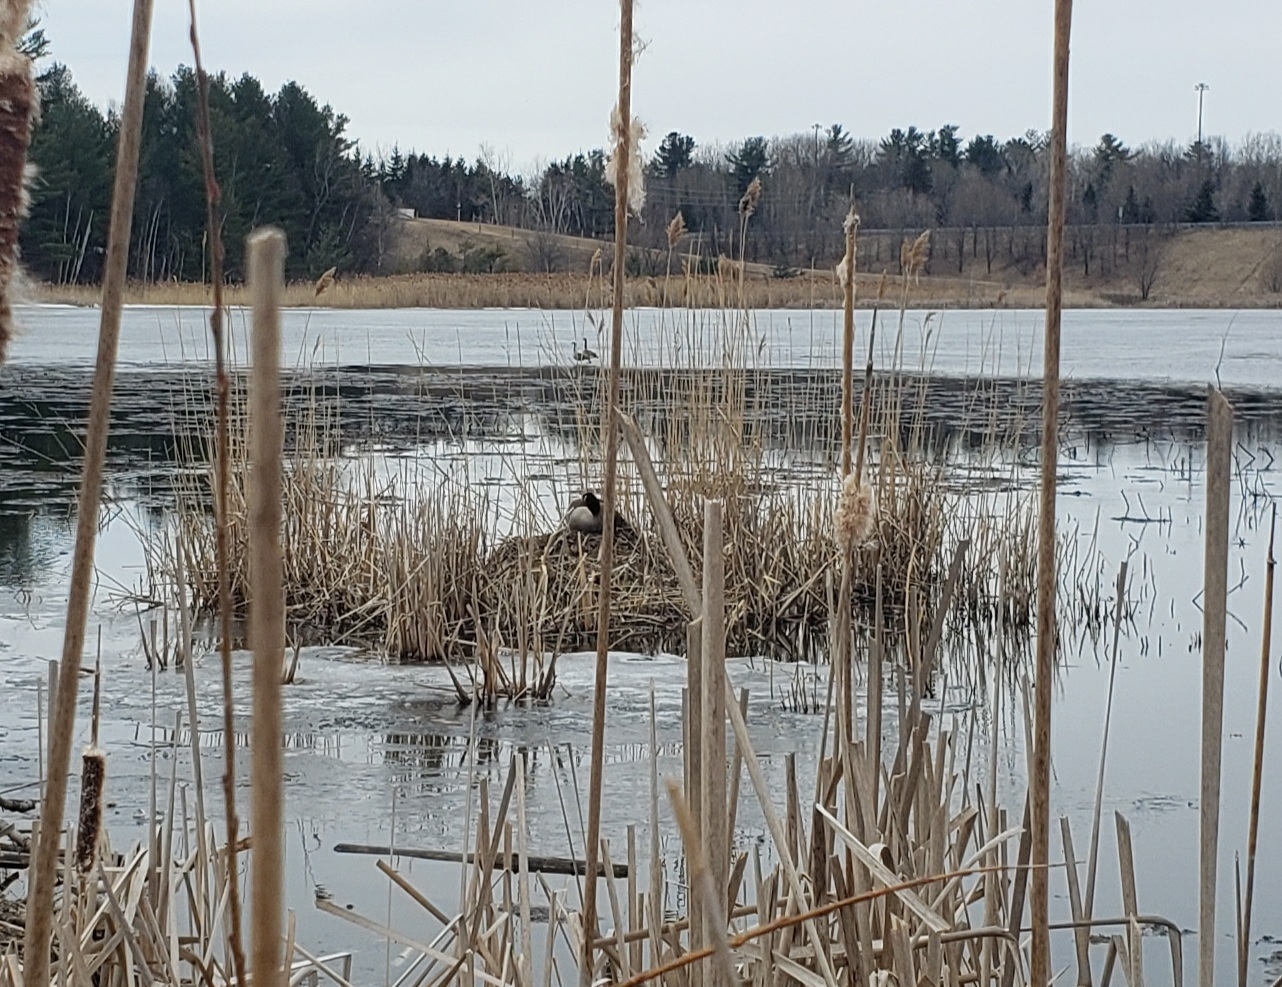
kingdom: Animalia
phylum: Chordata
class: Aves
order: Anseriformes
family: Anatidae
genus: Branta
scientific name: Branta canadensis
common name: Canada goose
